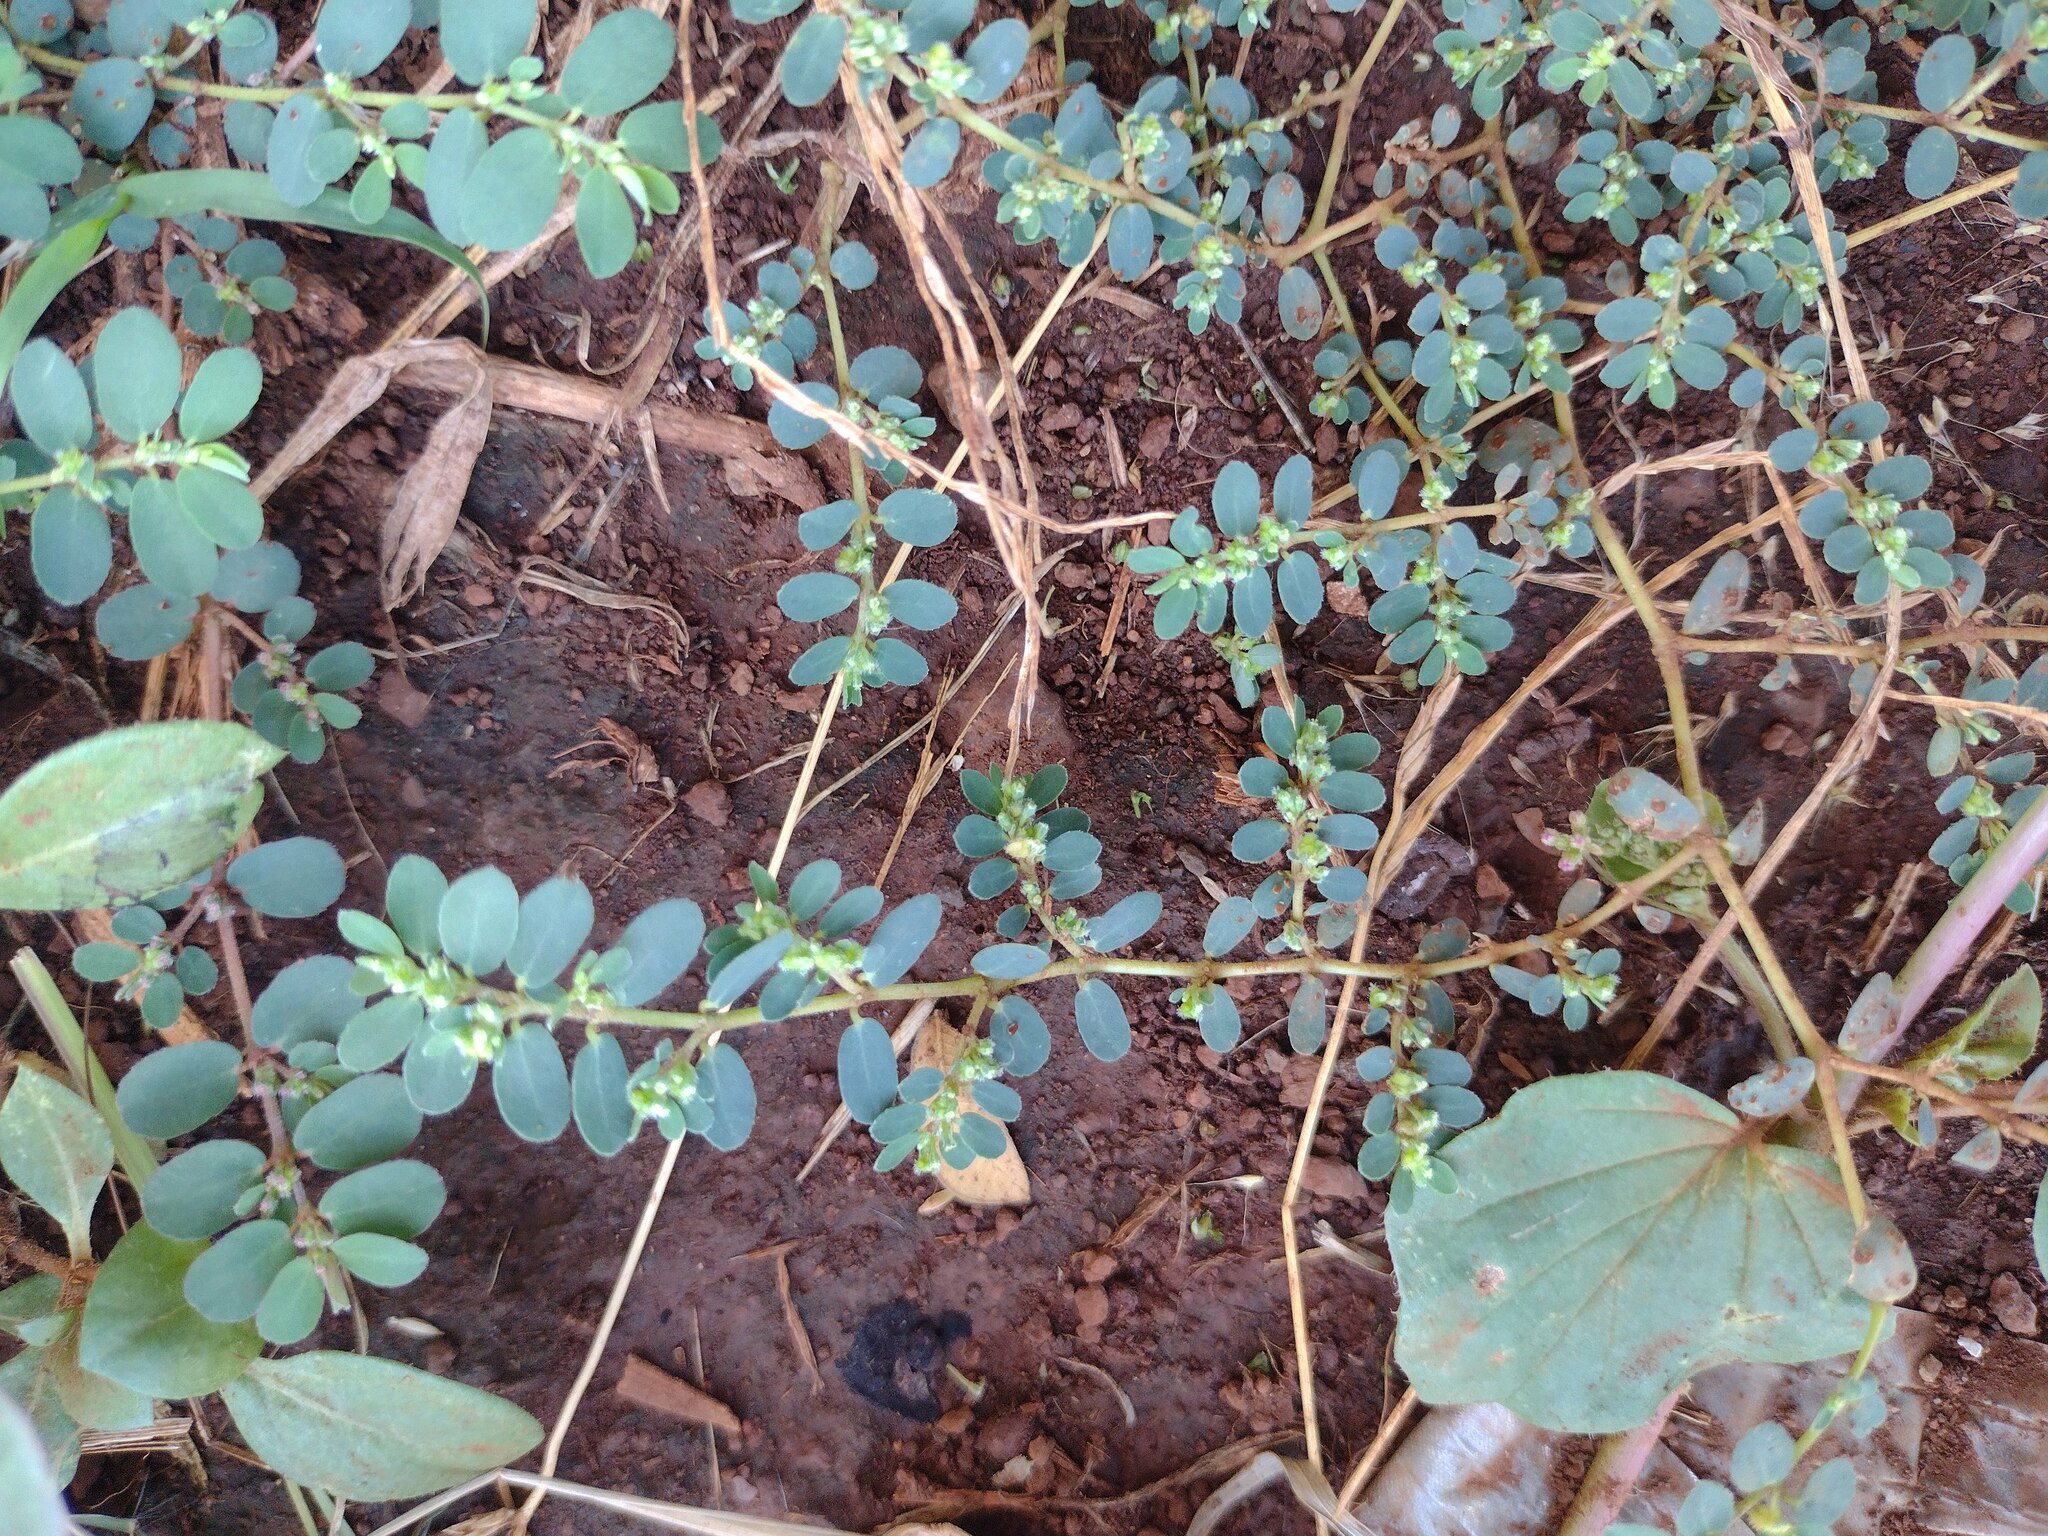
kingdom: Plantae
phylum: Tracheophyta
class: Magnoliopsida
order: Malpighiales
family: Euphorbiaceae
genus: Euphorbia
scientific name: Euphorbia prostrata
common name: Prostrate sandmat
